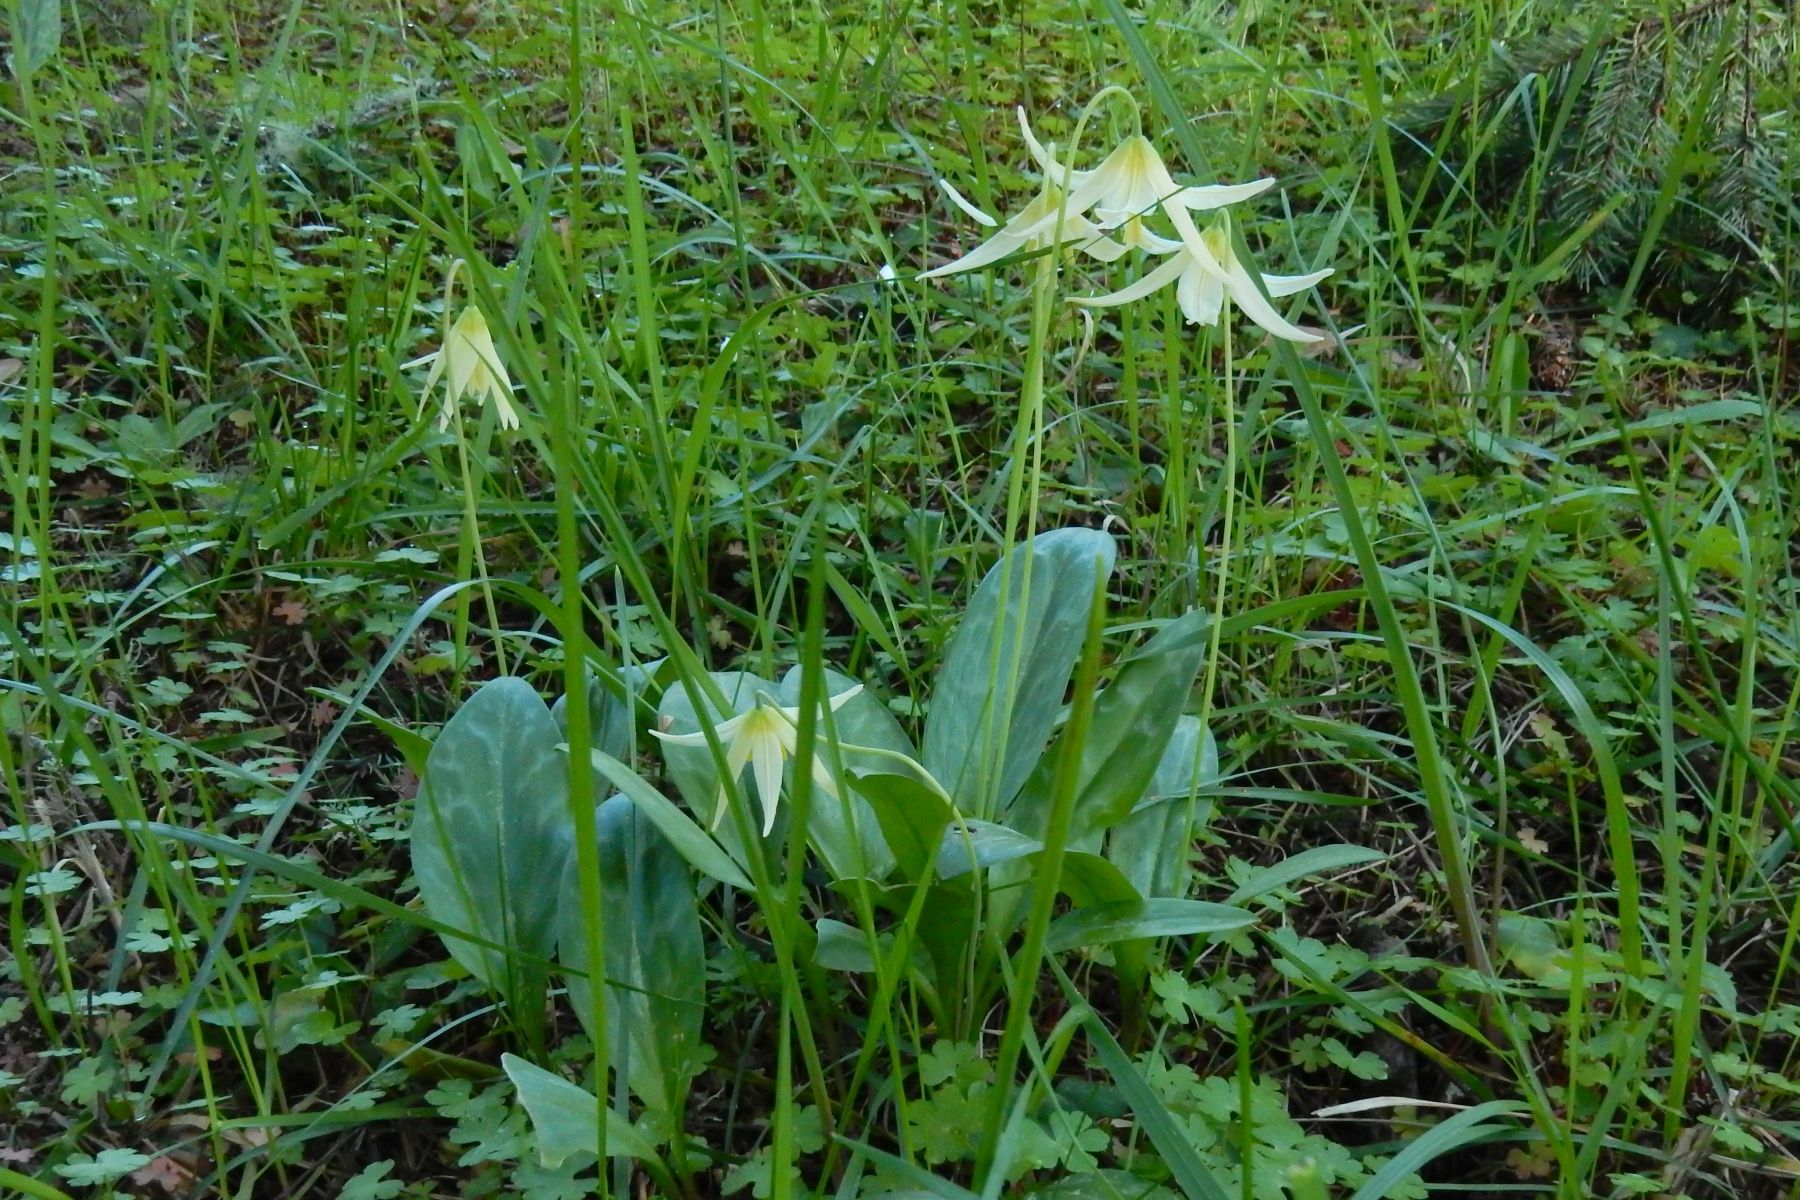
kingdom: Plantae
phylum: Tracheophyta
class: Liliopsida
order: Liliales
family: Liliaceae
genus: Erythronium
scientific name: Erythronium oregonum
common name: Giant adder's-tongue
